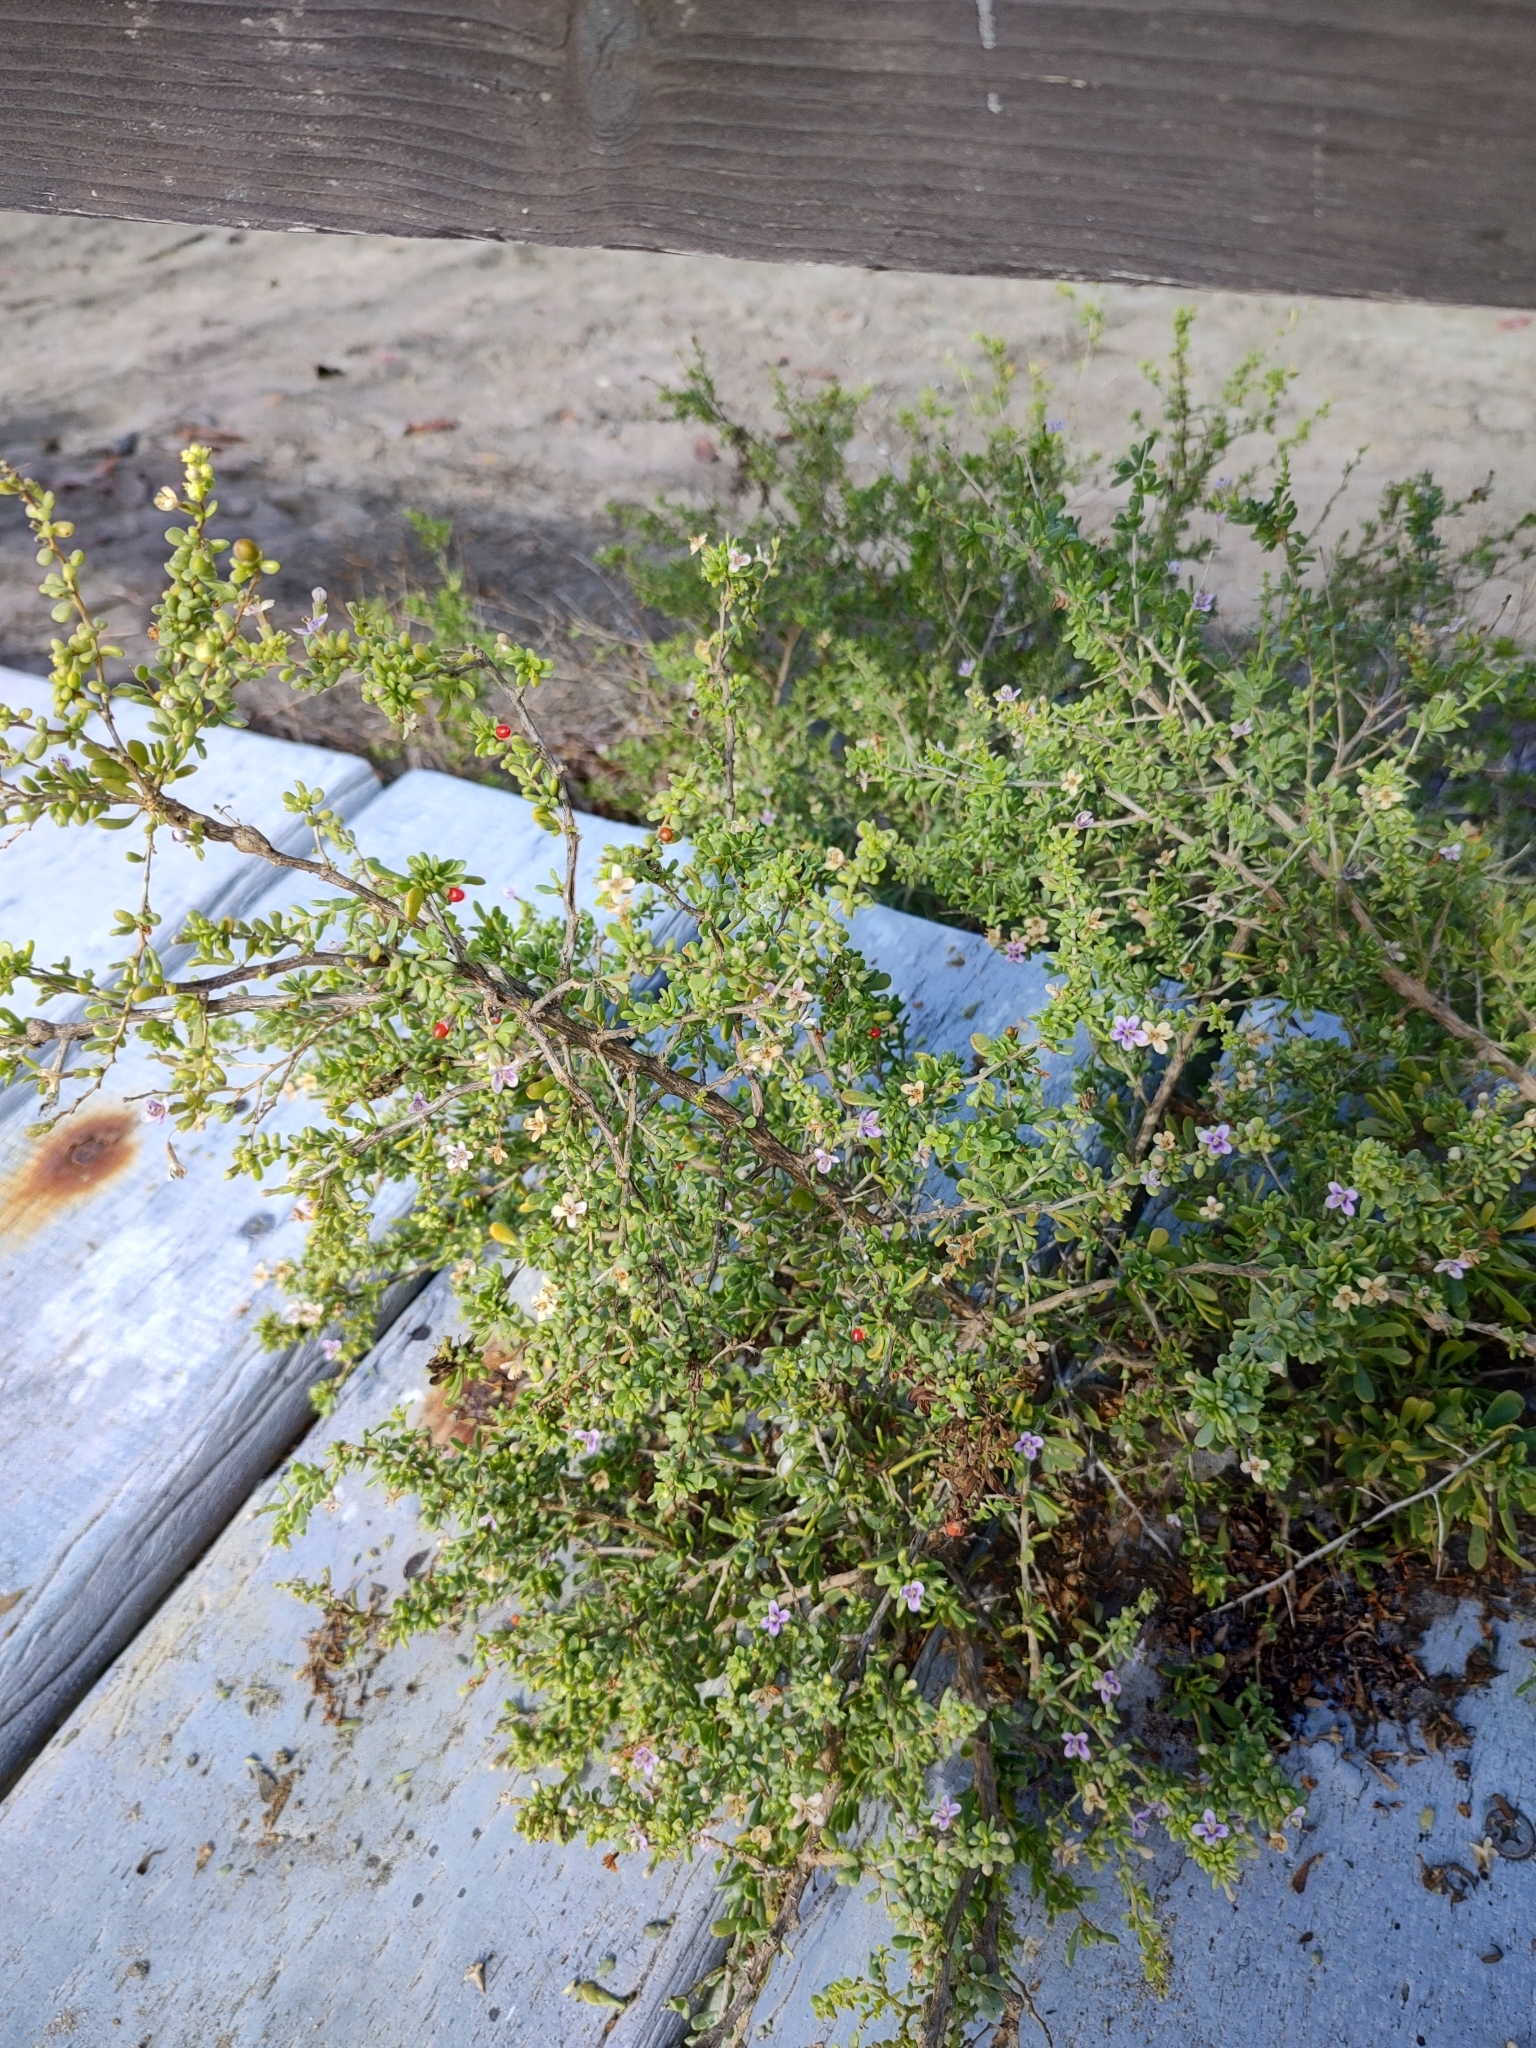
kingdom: Plantae
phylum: Tracheophyta
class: Magnoliopsida
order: Solanales
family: Solanaceae
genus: Lycium
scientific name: Lycium brevipes
